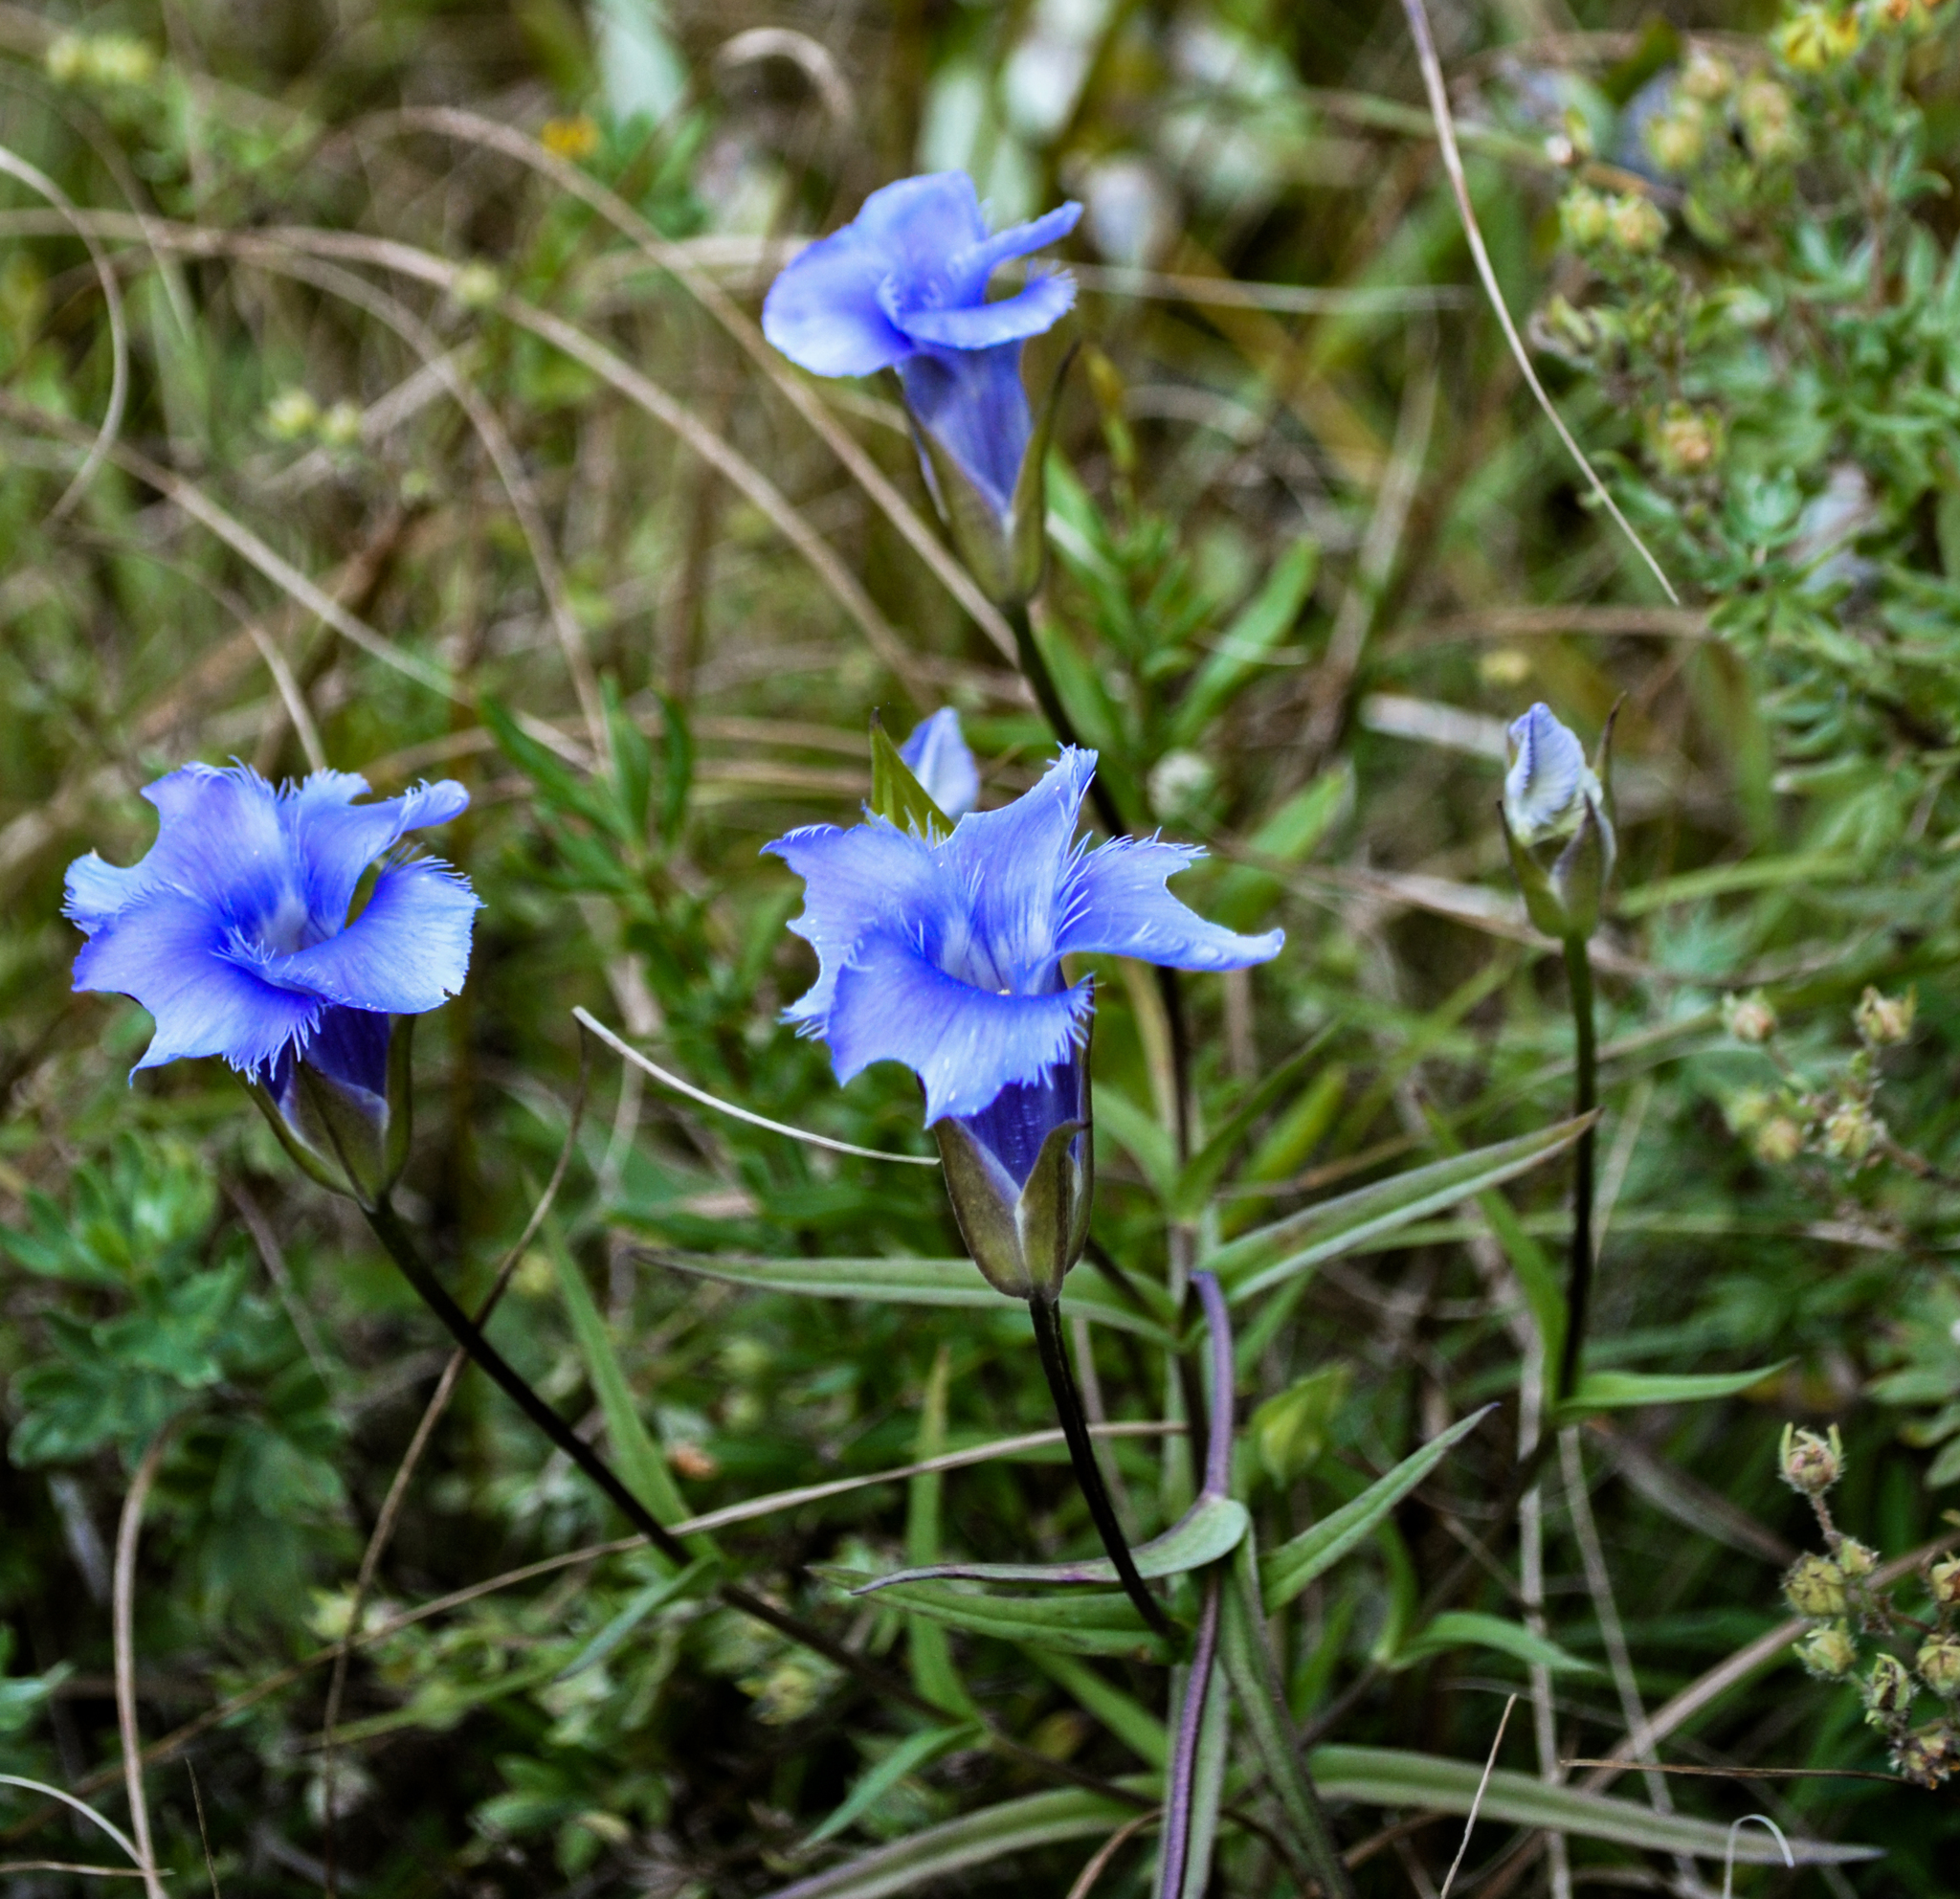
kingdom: Plantae
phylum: Tracheophyta
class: Magnoliopsida
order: Gentianales
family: Gentianaceae
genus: Gentianopsis
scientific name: Gentianopsis virgata
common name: Lesser fringed-gentian
